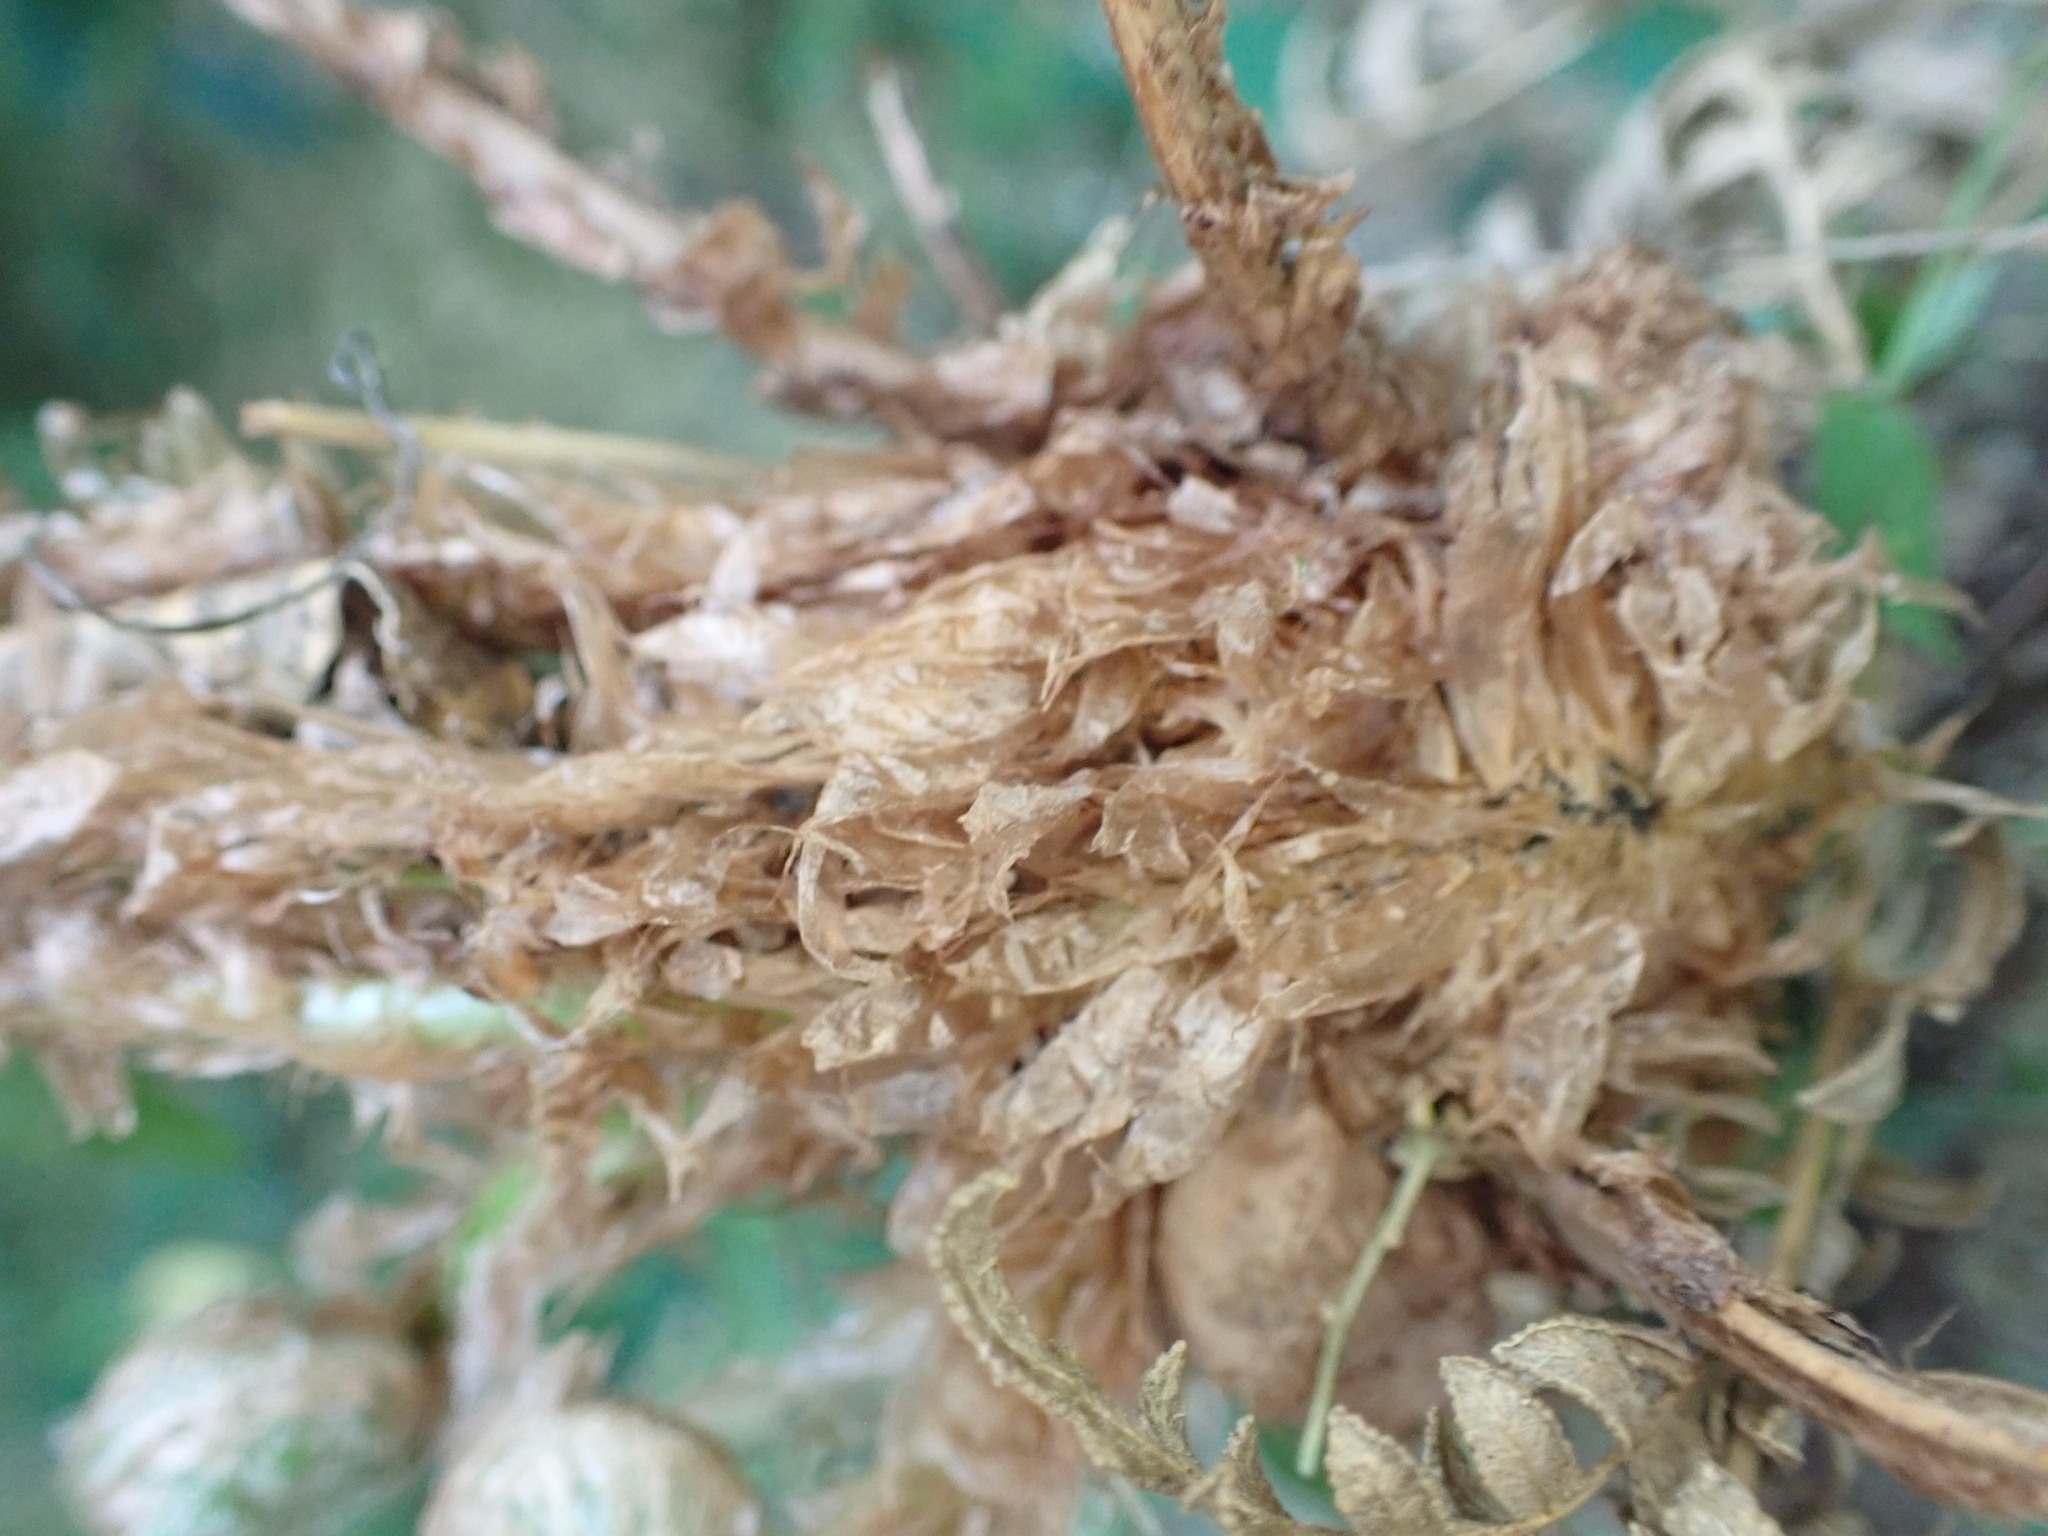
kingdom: Plantae
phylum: Tracheophyta
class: Polypodiopsida
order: Polypodiales
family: Dryopteridaceae
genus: Dryopteris
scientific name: Dryopteris filix-mas
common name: Male fern
